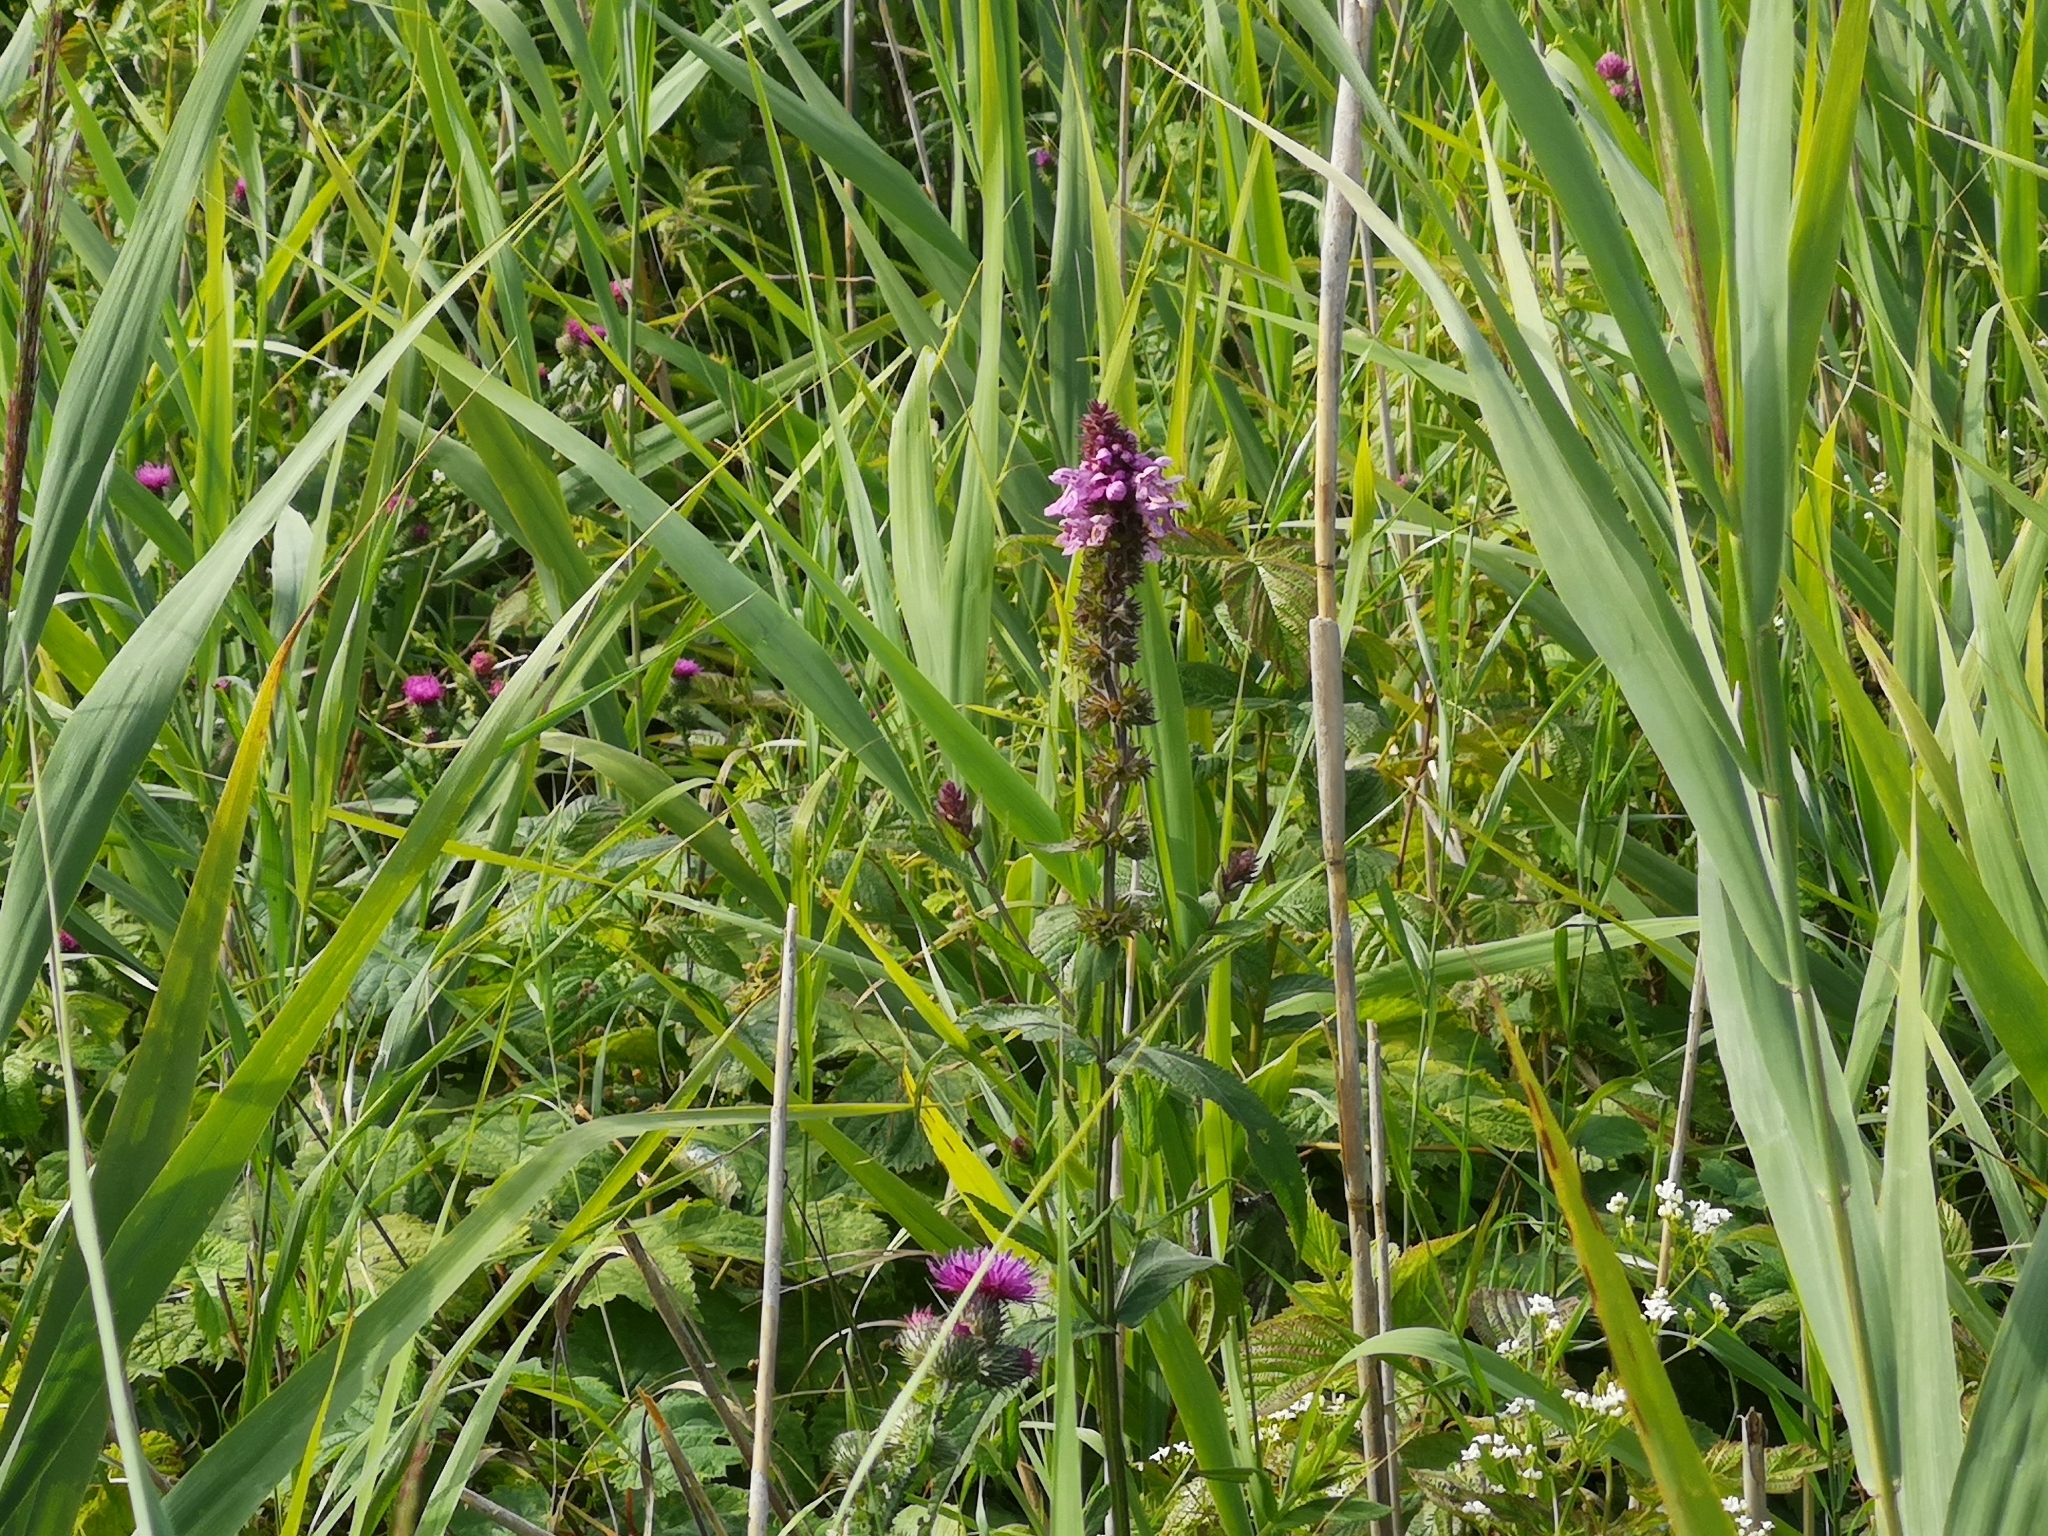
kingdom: Plantae
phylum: Tracheophyta
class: Magnoliopsida
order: Lamiales
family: Lamiaceae
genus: Stachys
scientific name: Stachys palustris
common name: Marsh woundwort
